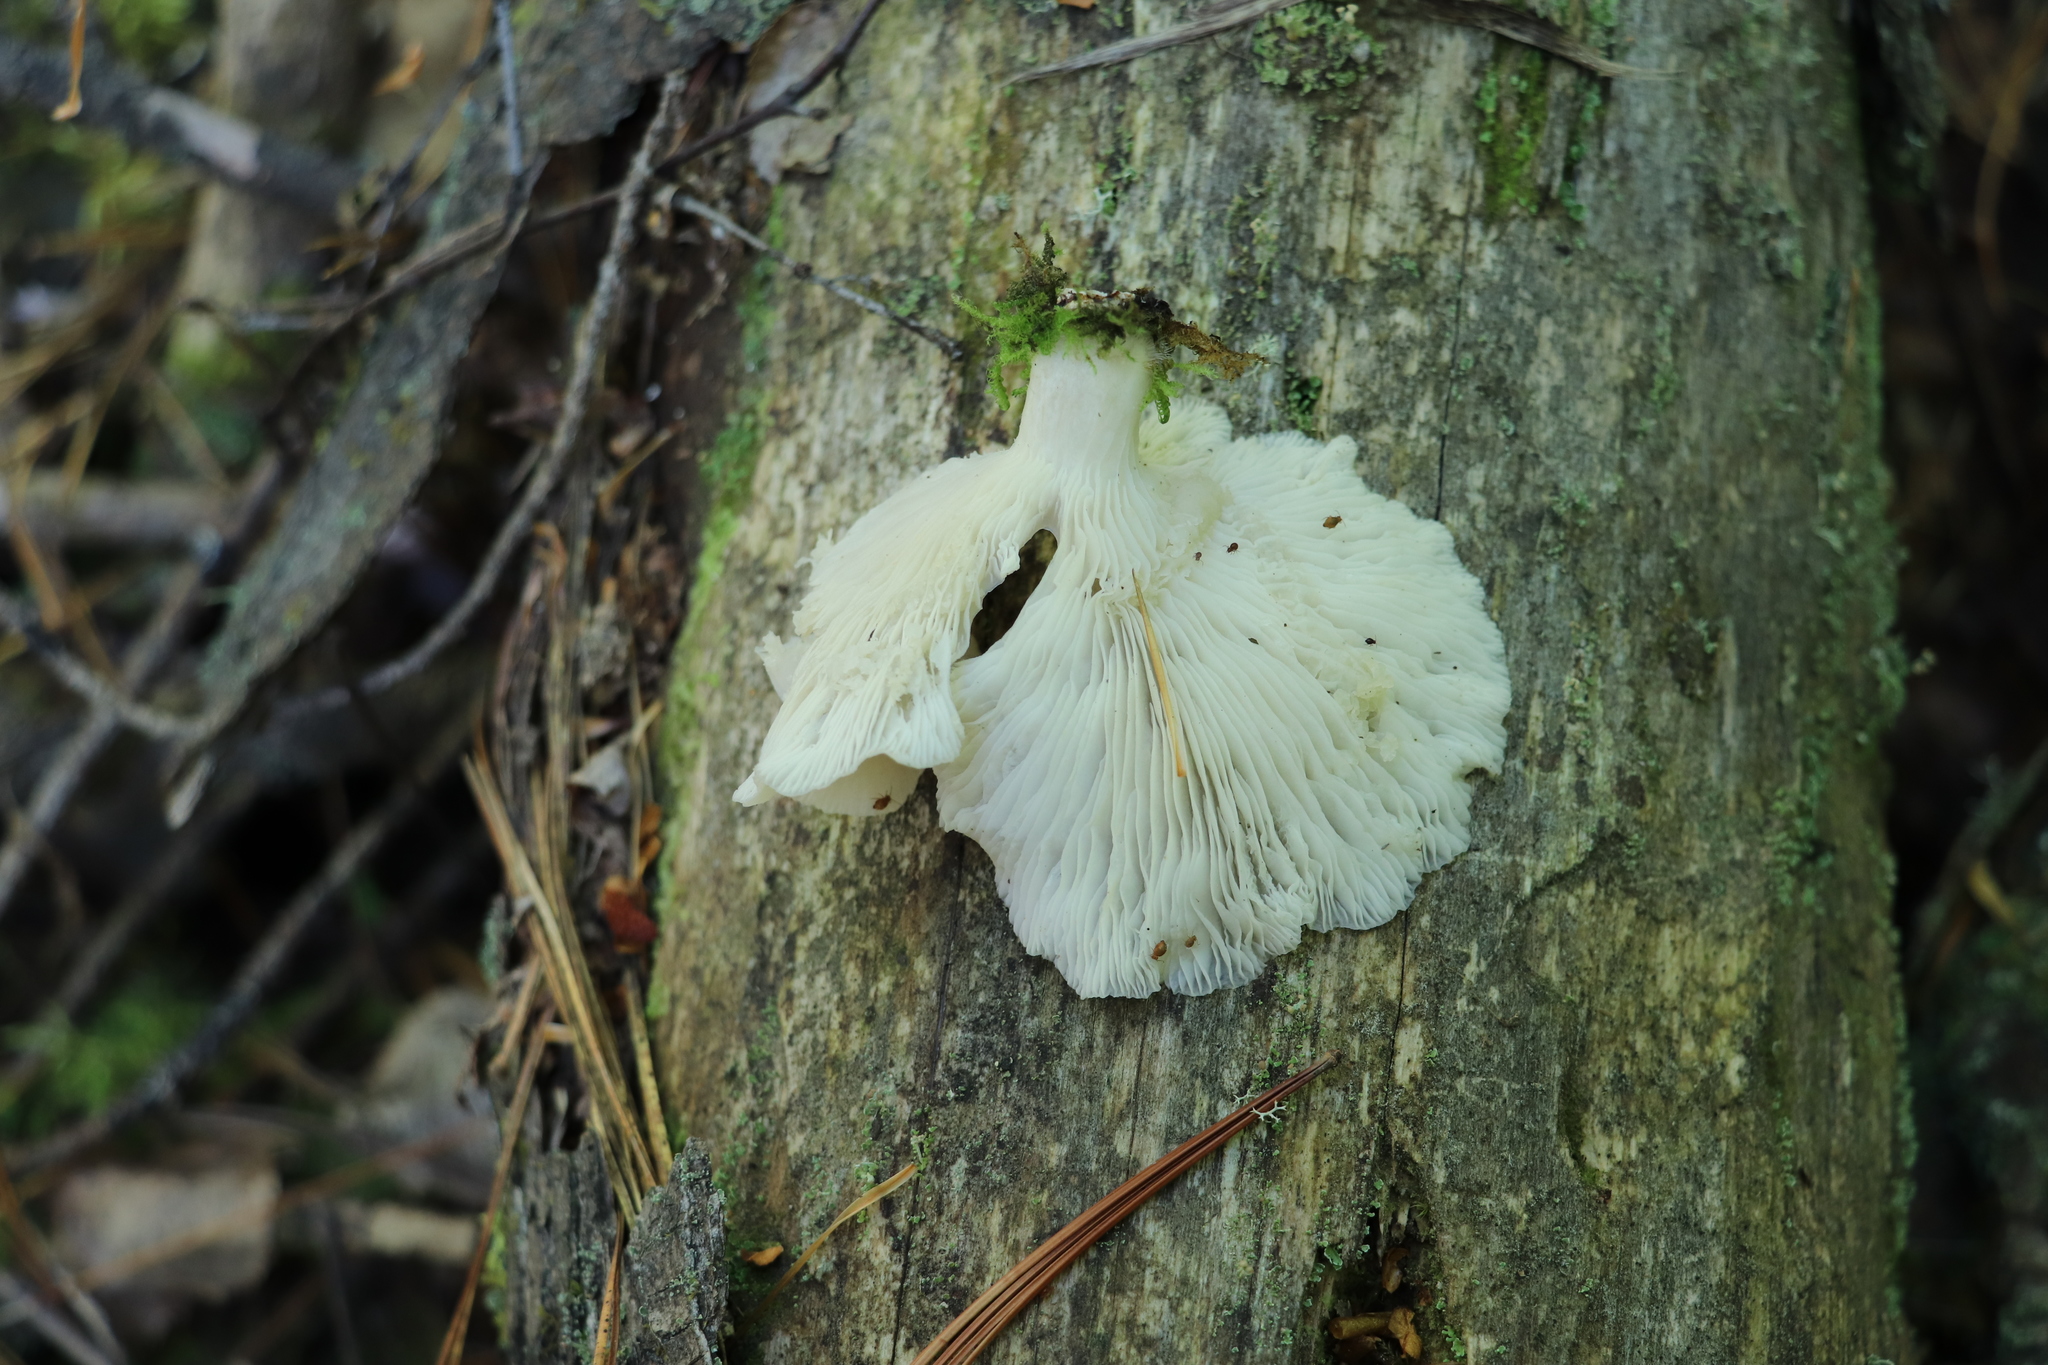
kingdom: Fungi
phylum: Basidiomycota
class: Agaricomycetes
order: Agaricales
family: Pleurotaceae
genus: Pleurotus
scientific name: Pleurotus pulmonarius
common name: Pale oyster
